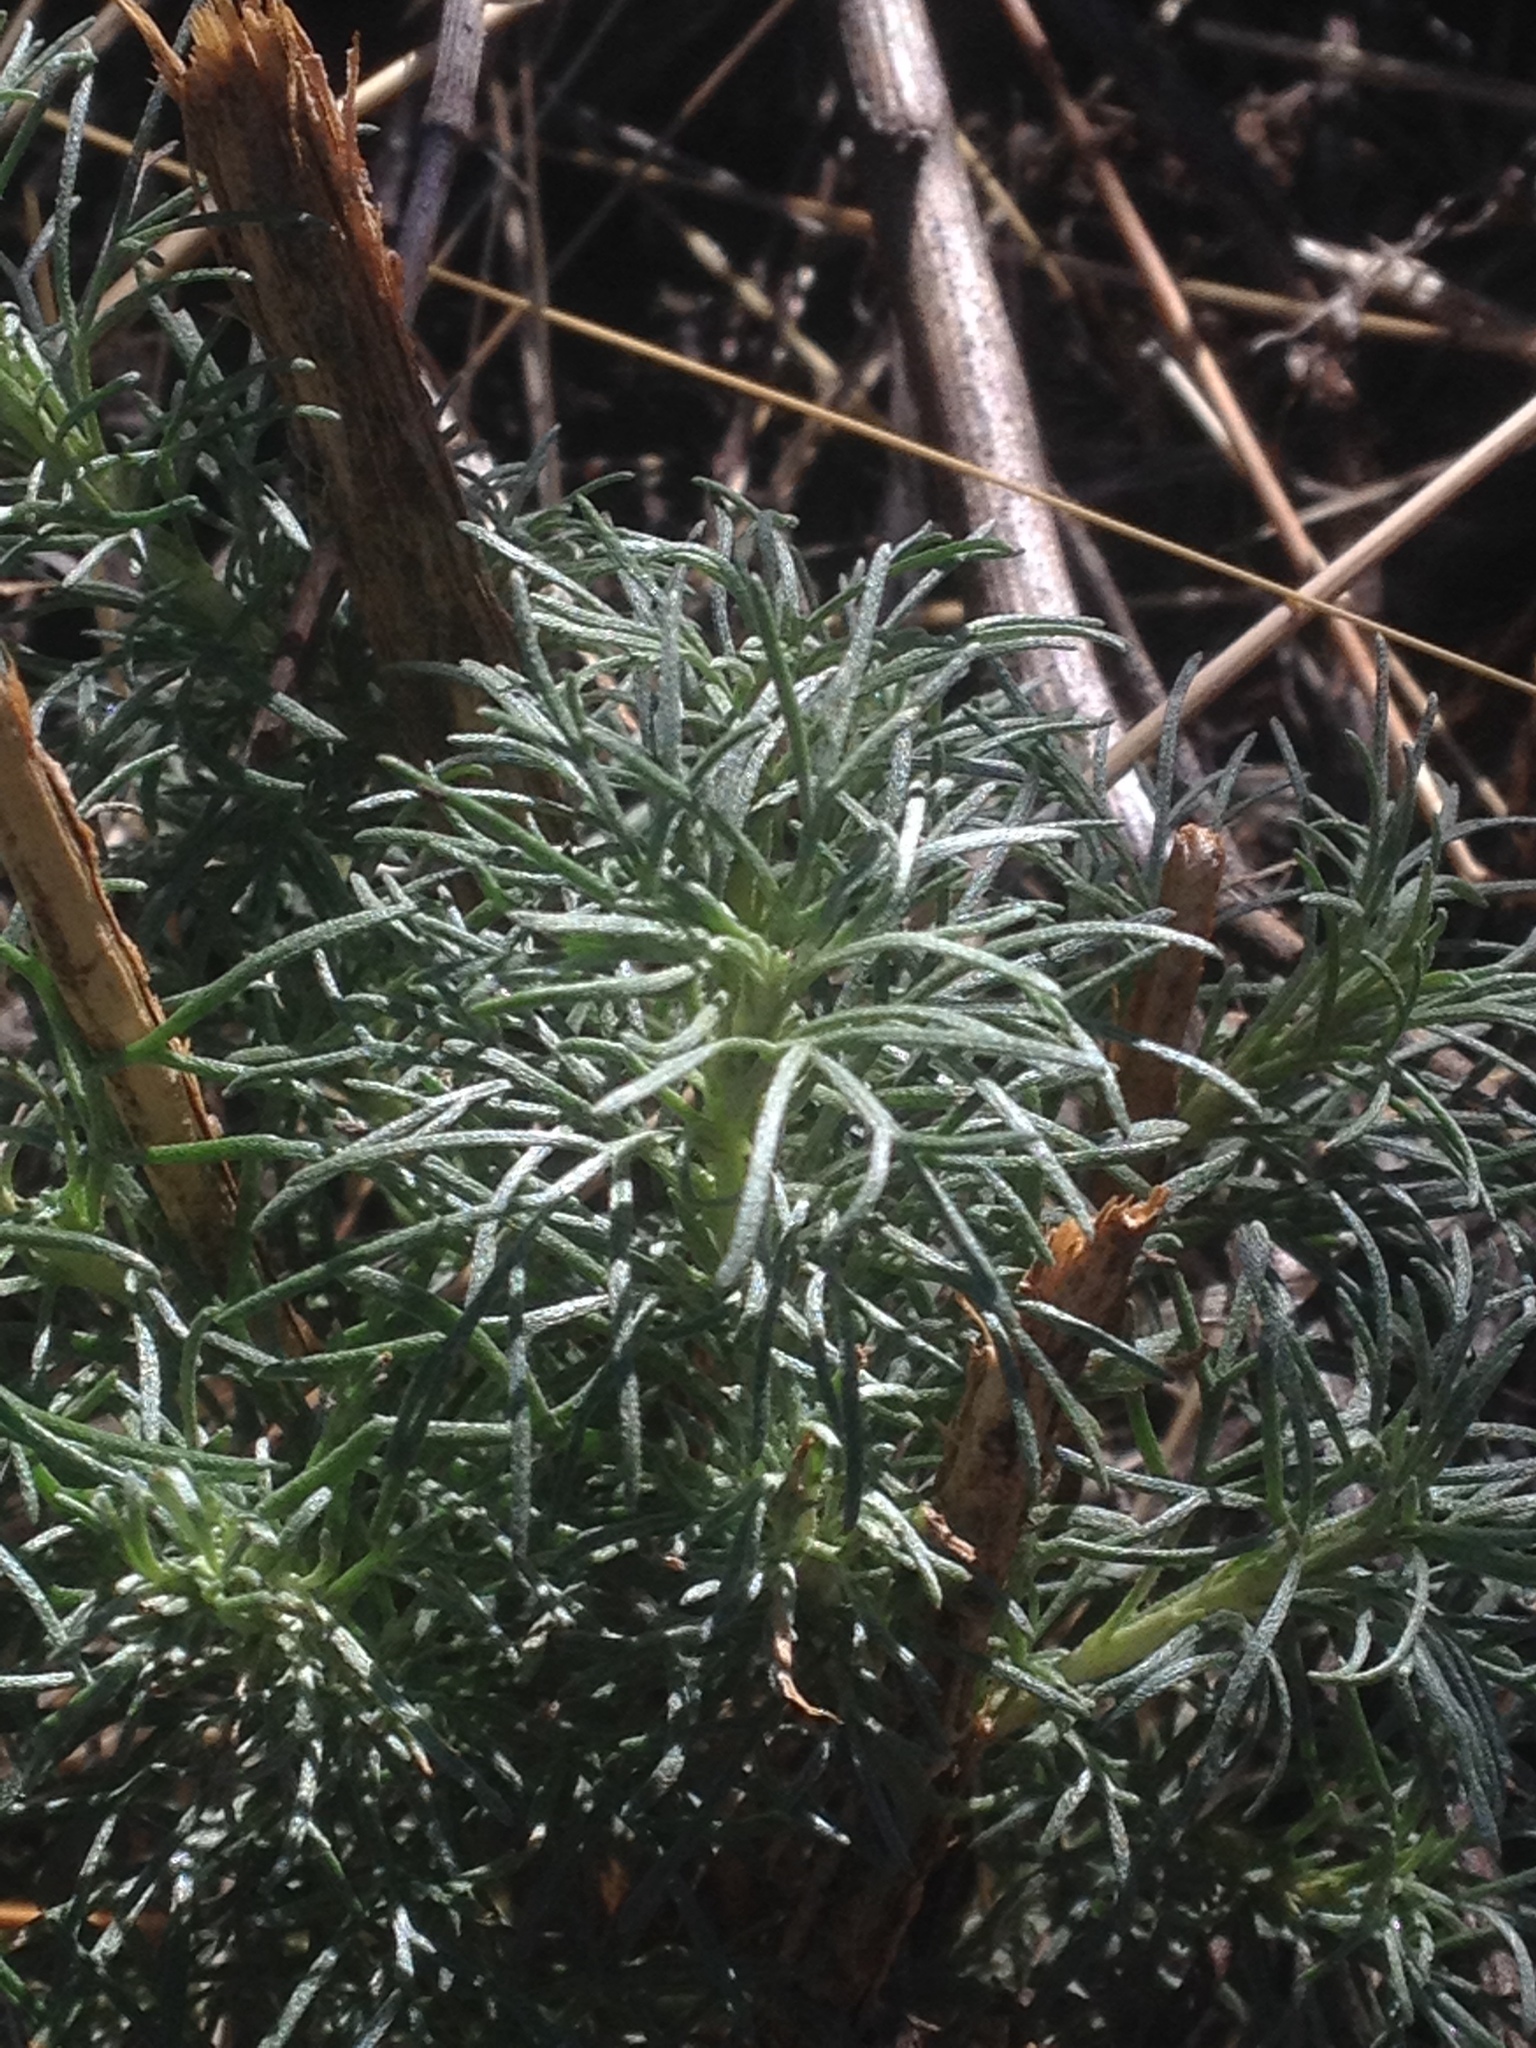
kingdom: Plantae
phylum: Tracheophyta
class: Magnoliopsida
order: Asterales
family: Asteraceae
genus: Artemisia
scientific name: Artemisia californica
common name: California sagebrush
